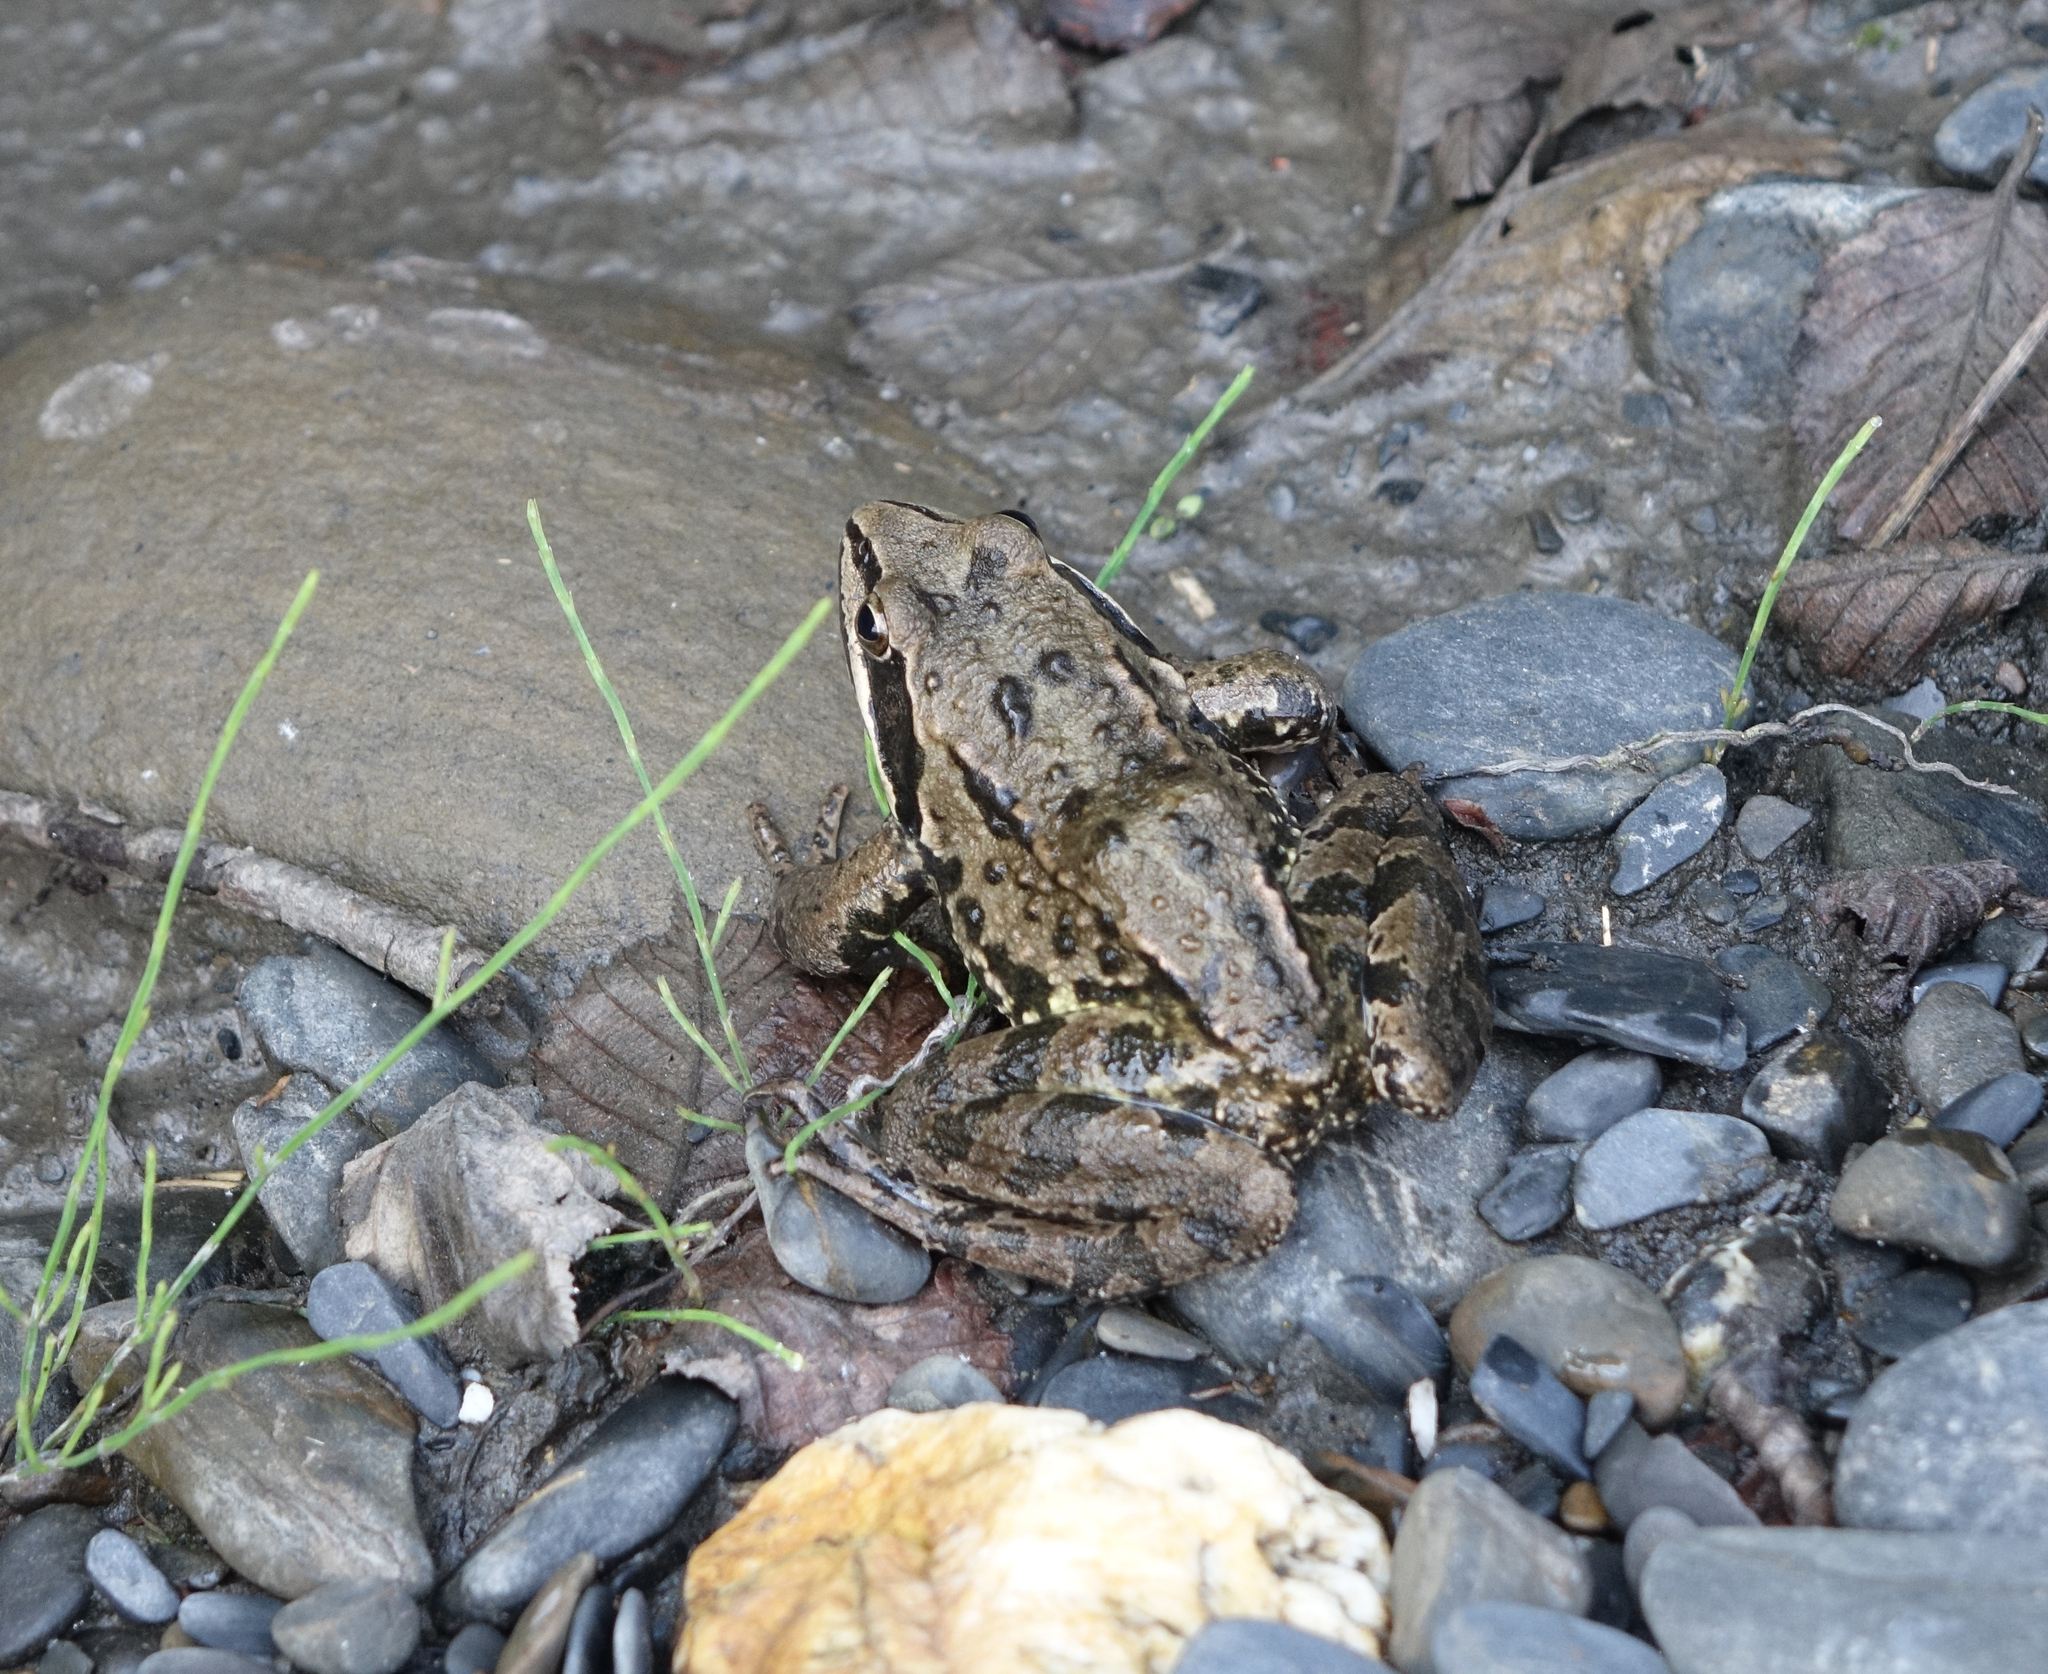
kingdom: Animalia
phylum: Chordata
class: Amphibia
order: Anura
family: Ranidae
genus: Rana
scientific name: Rana macrocnemis
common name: Banded frog
